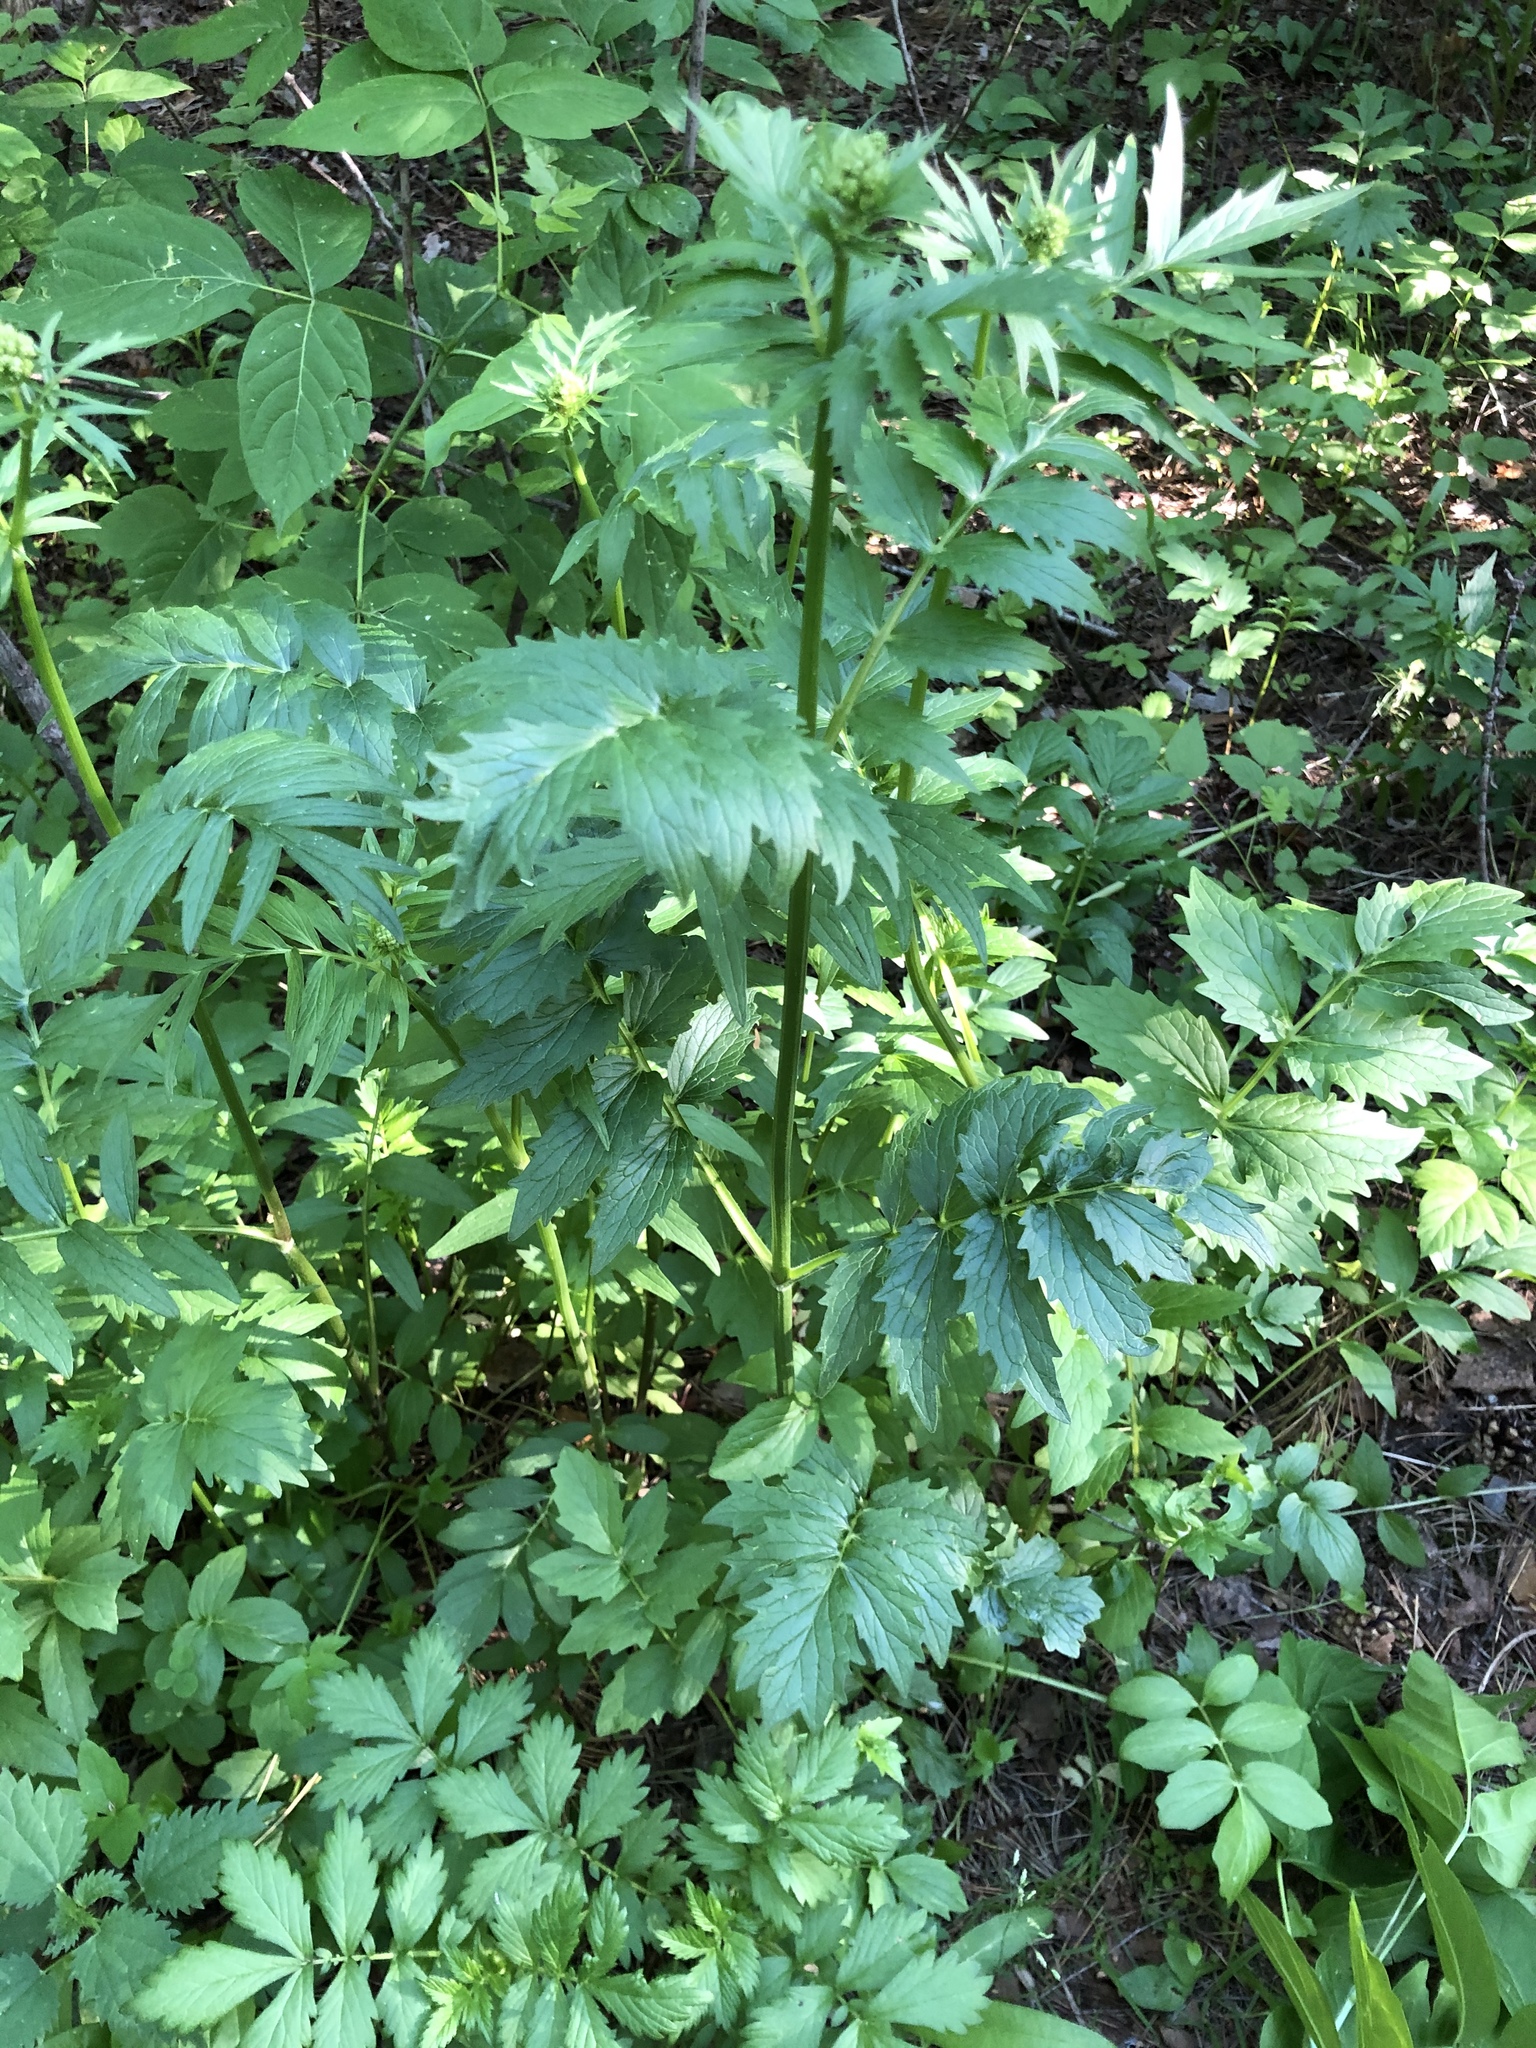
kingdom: Plantae
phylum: Tracheophyta
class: Magnoliopsida
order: Dipsacales
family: Caprifoliaceae
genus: Valeriana
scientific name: Valeriana officinalis
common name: Common valerian
